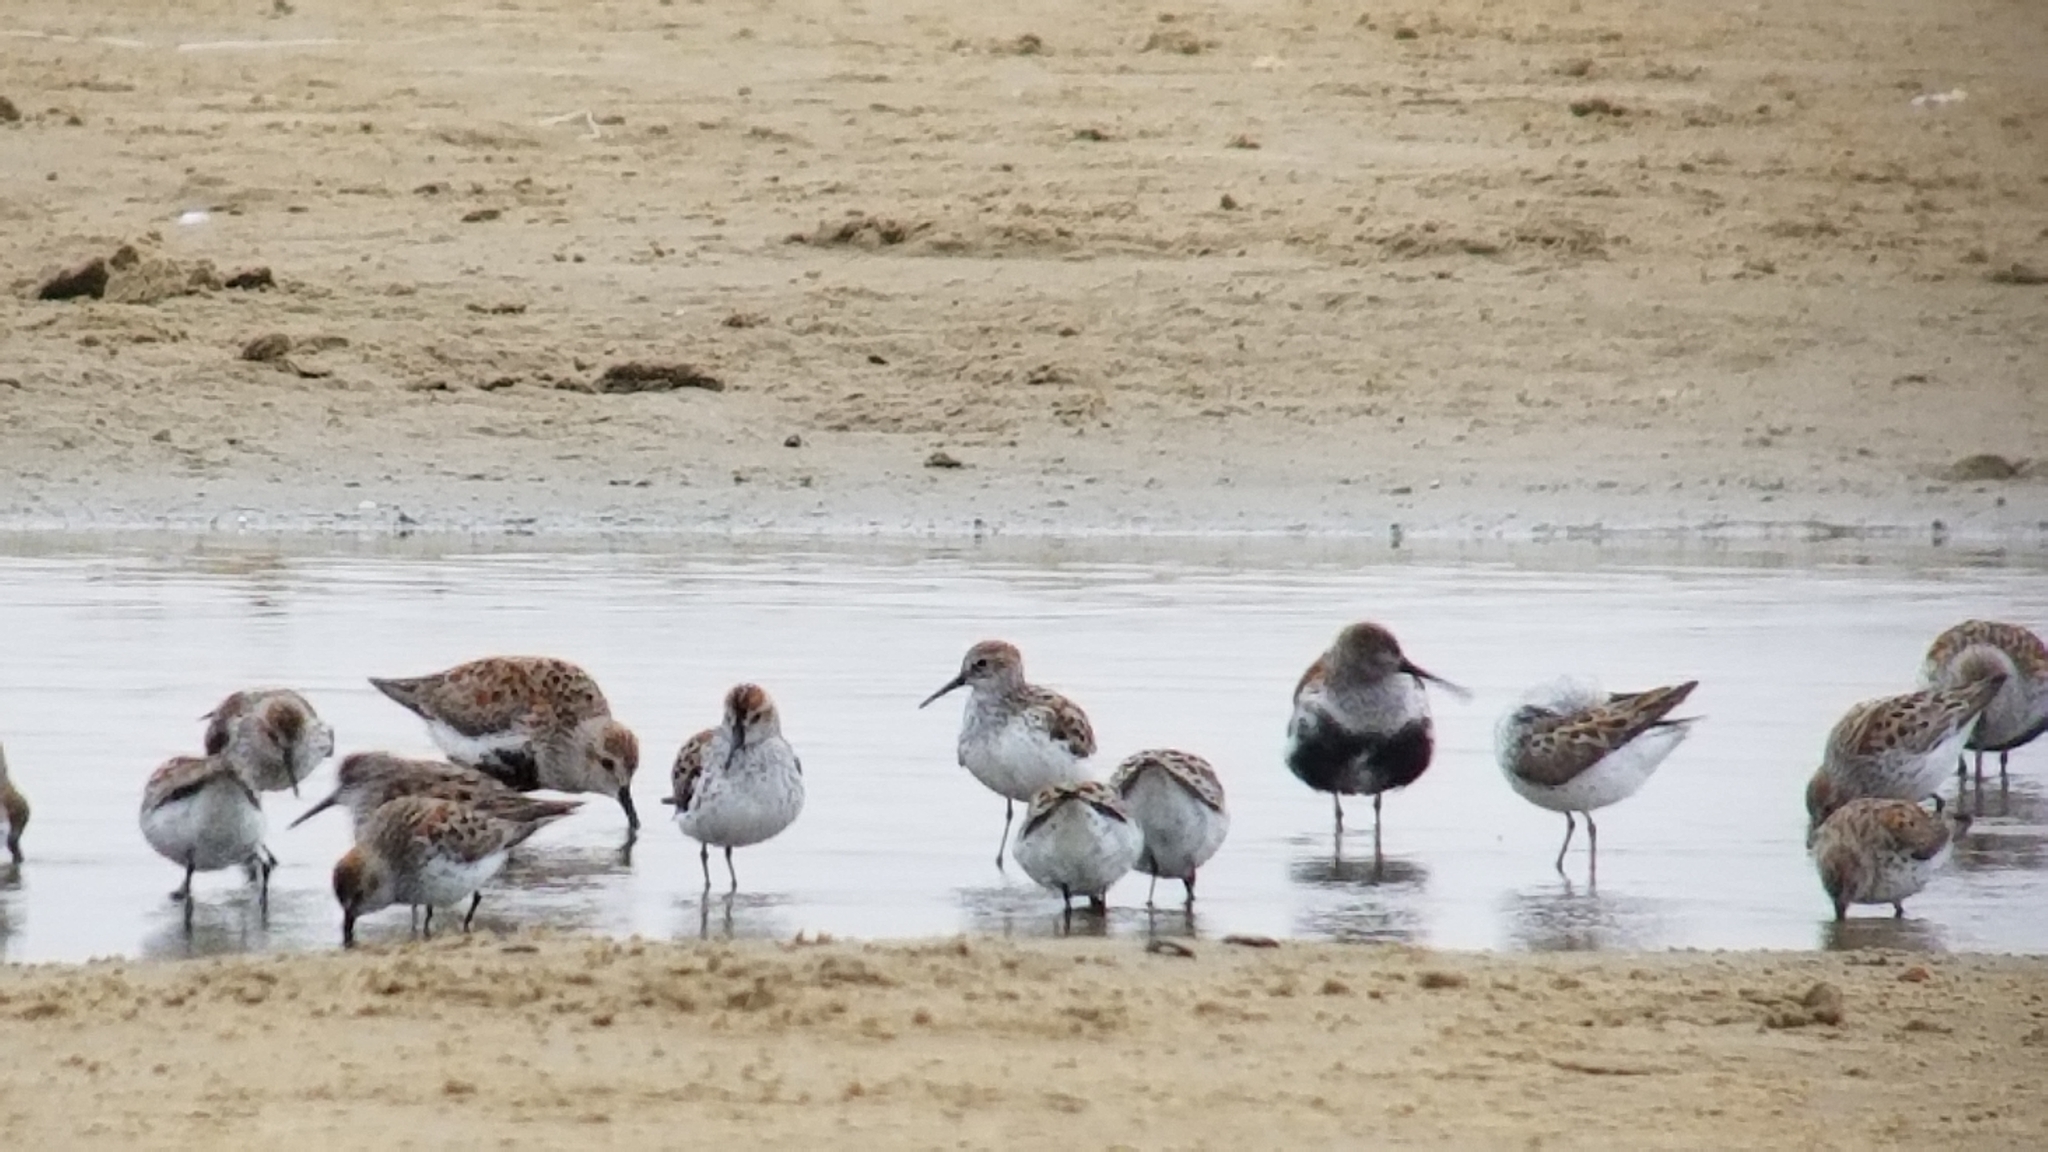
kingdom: Animalia
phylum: Chordata
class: Aves
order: Charadriiformes
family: Scolopacidae
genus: Calidris
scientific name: Calidris alpina
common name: Dunlin
